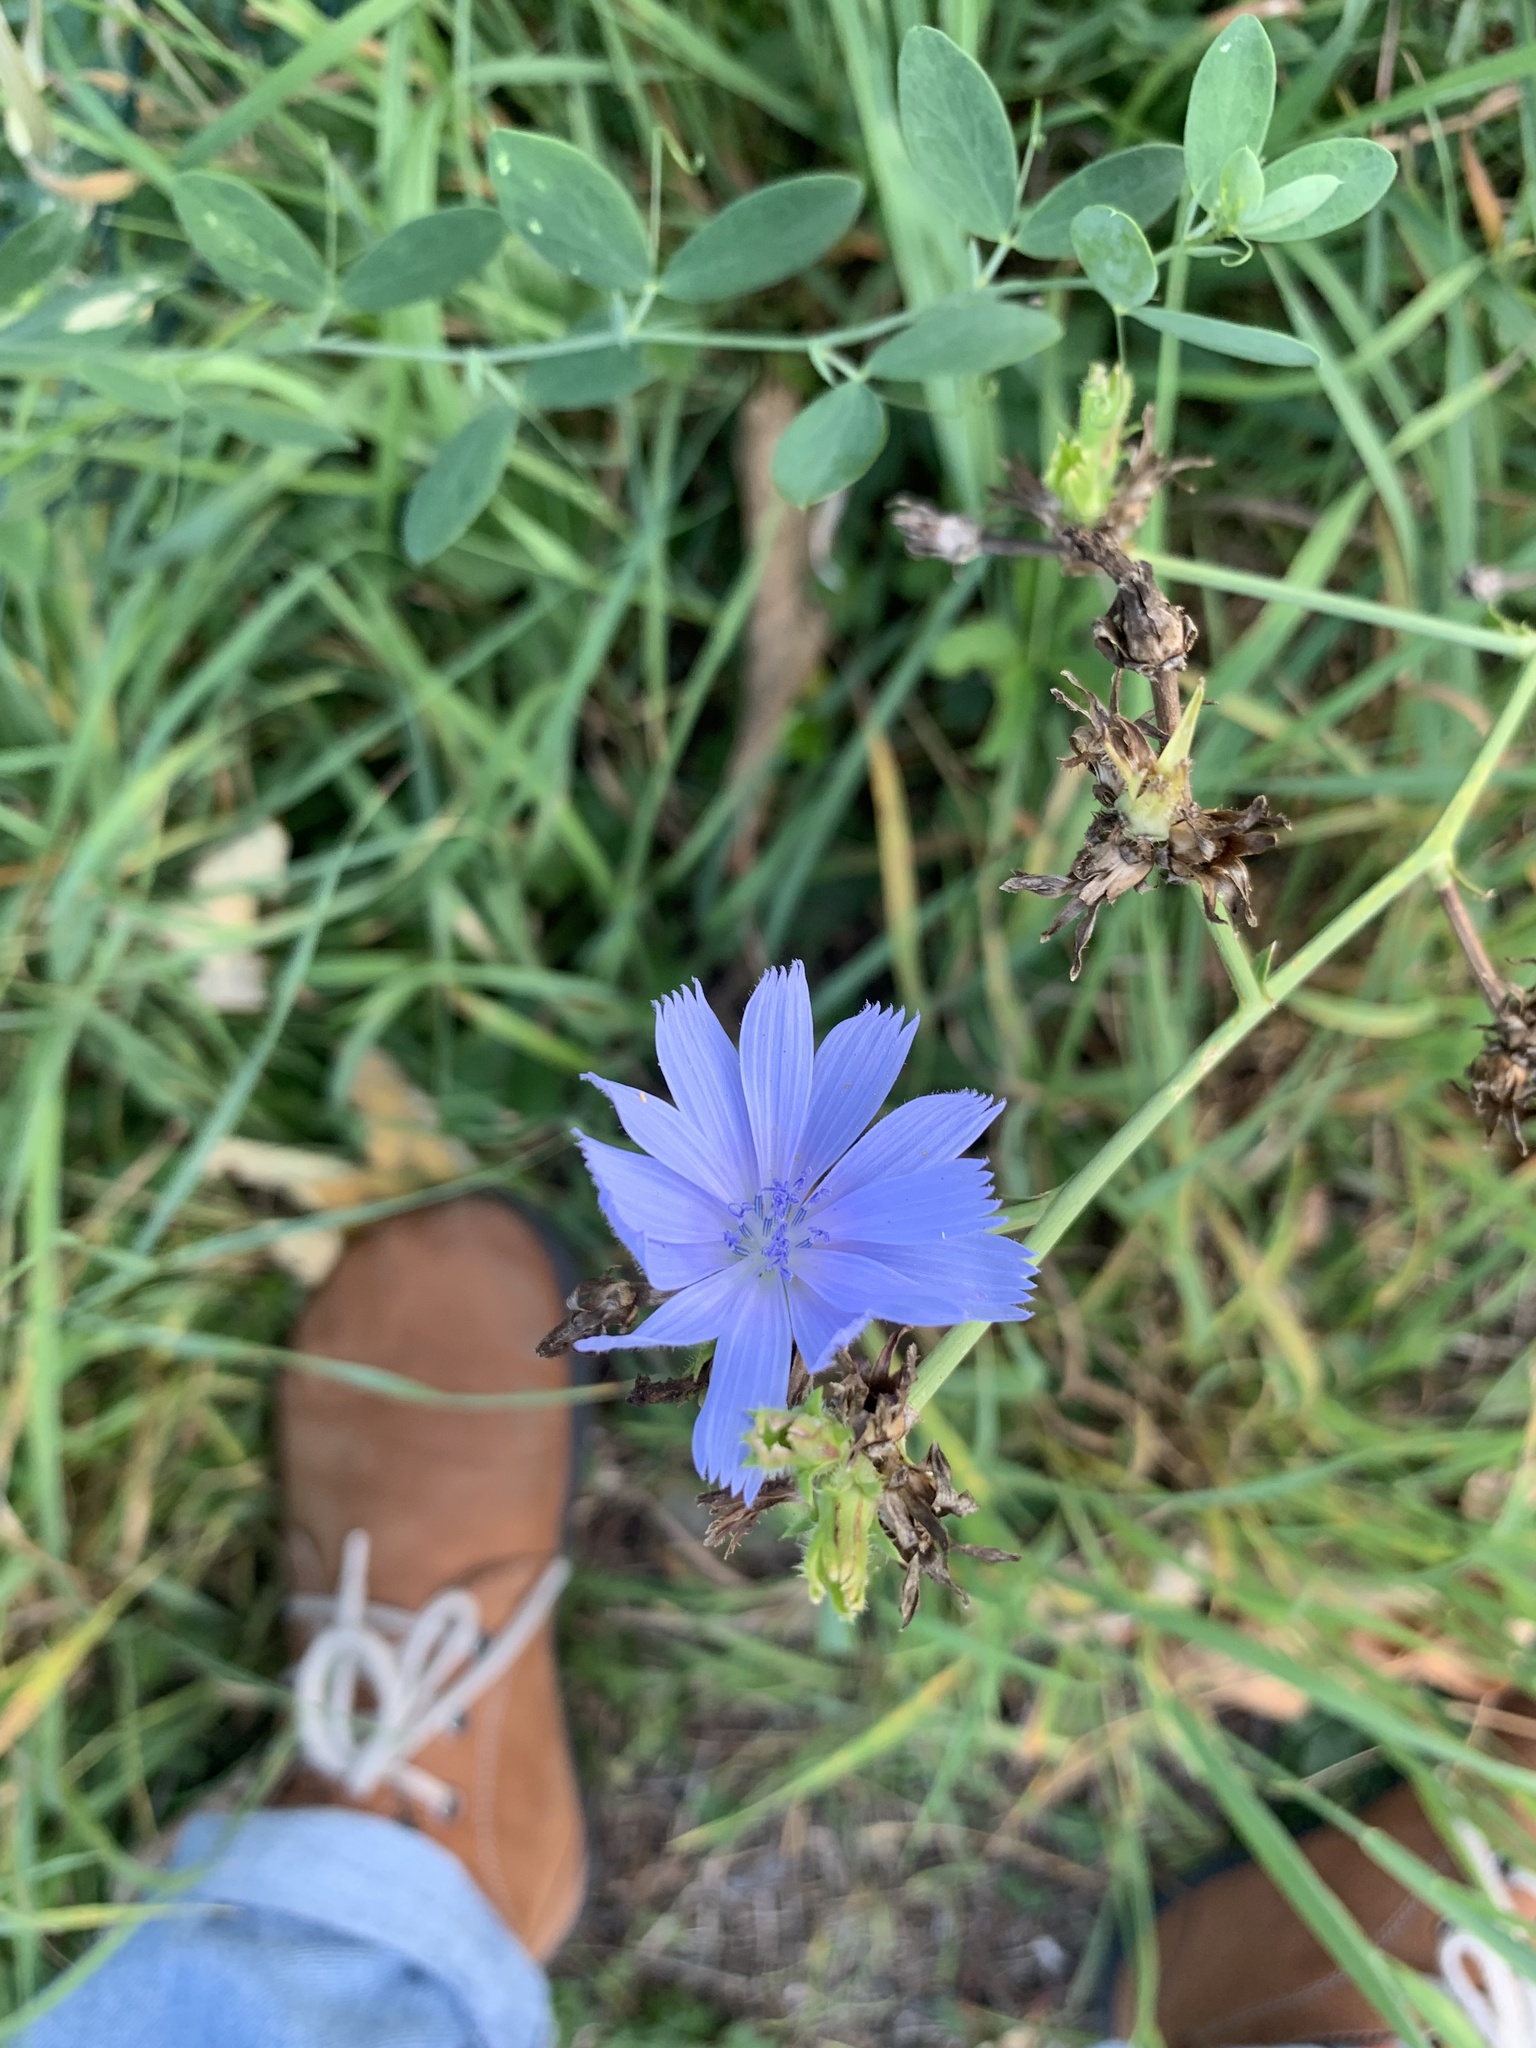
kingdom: Plantae
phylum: Tracheophyta
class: Magnoliopsida
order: Asterales
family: Asteraceae
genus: Cichorium
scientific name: Cichorium intybus
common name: Chicory
